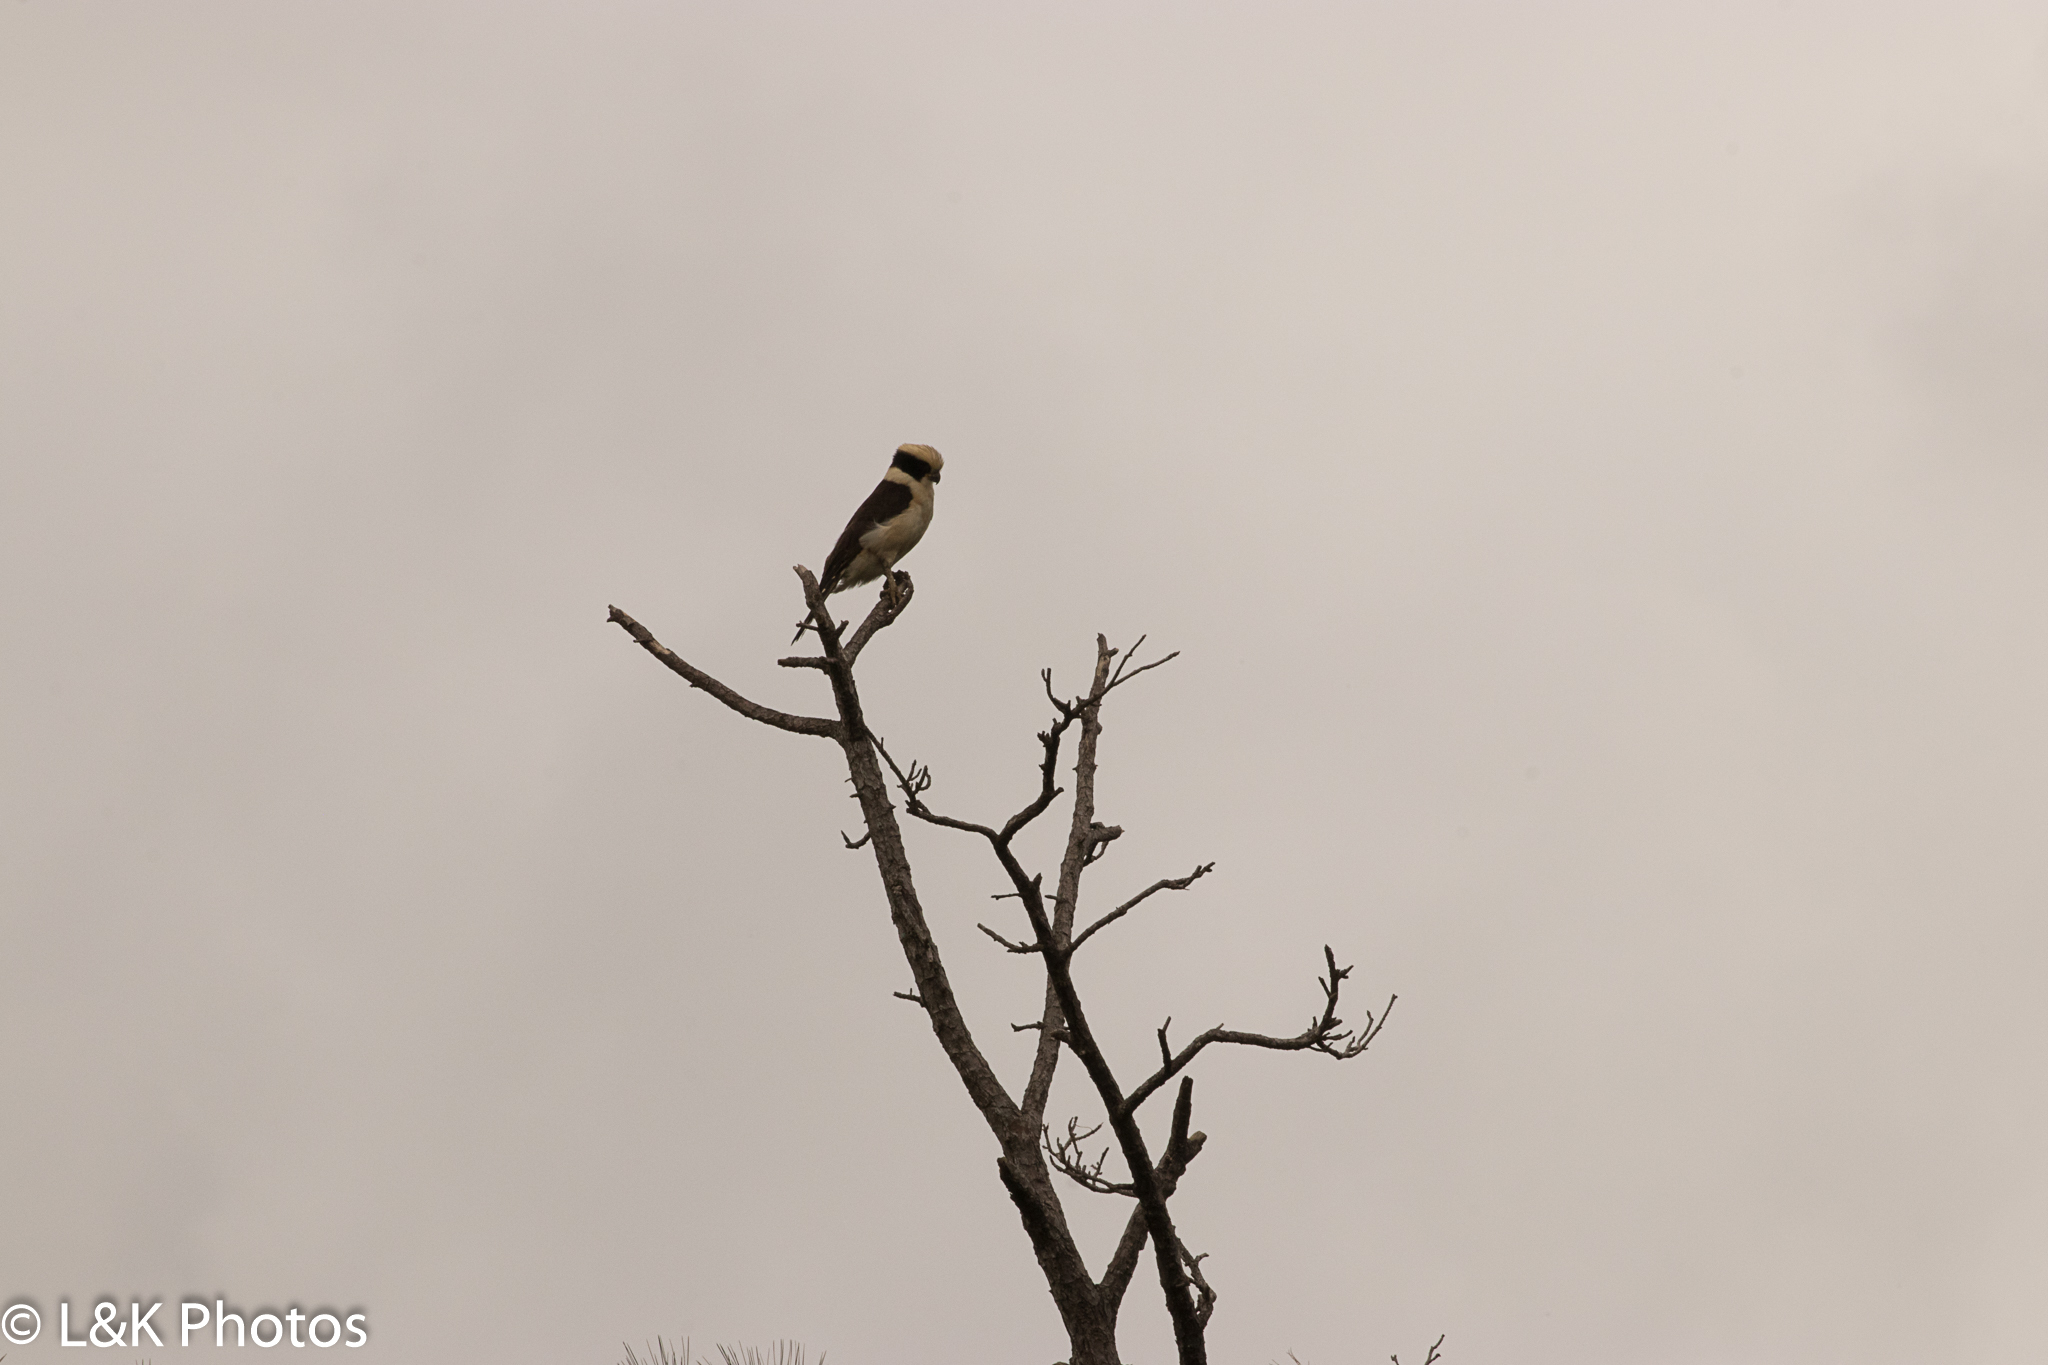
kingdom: Animalia
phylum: Chordata
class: Aves
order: Falconiformes
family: Falconidae
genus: Herpetotheres
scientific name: Herpetotheres cachinnans
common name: Laughing falcon
